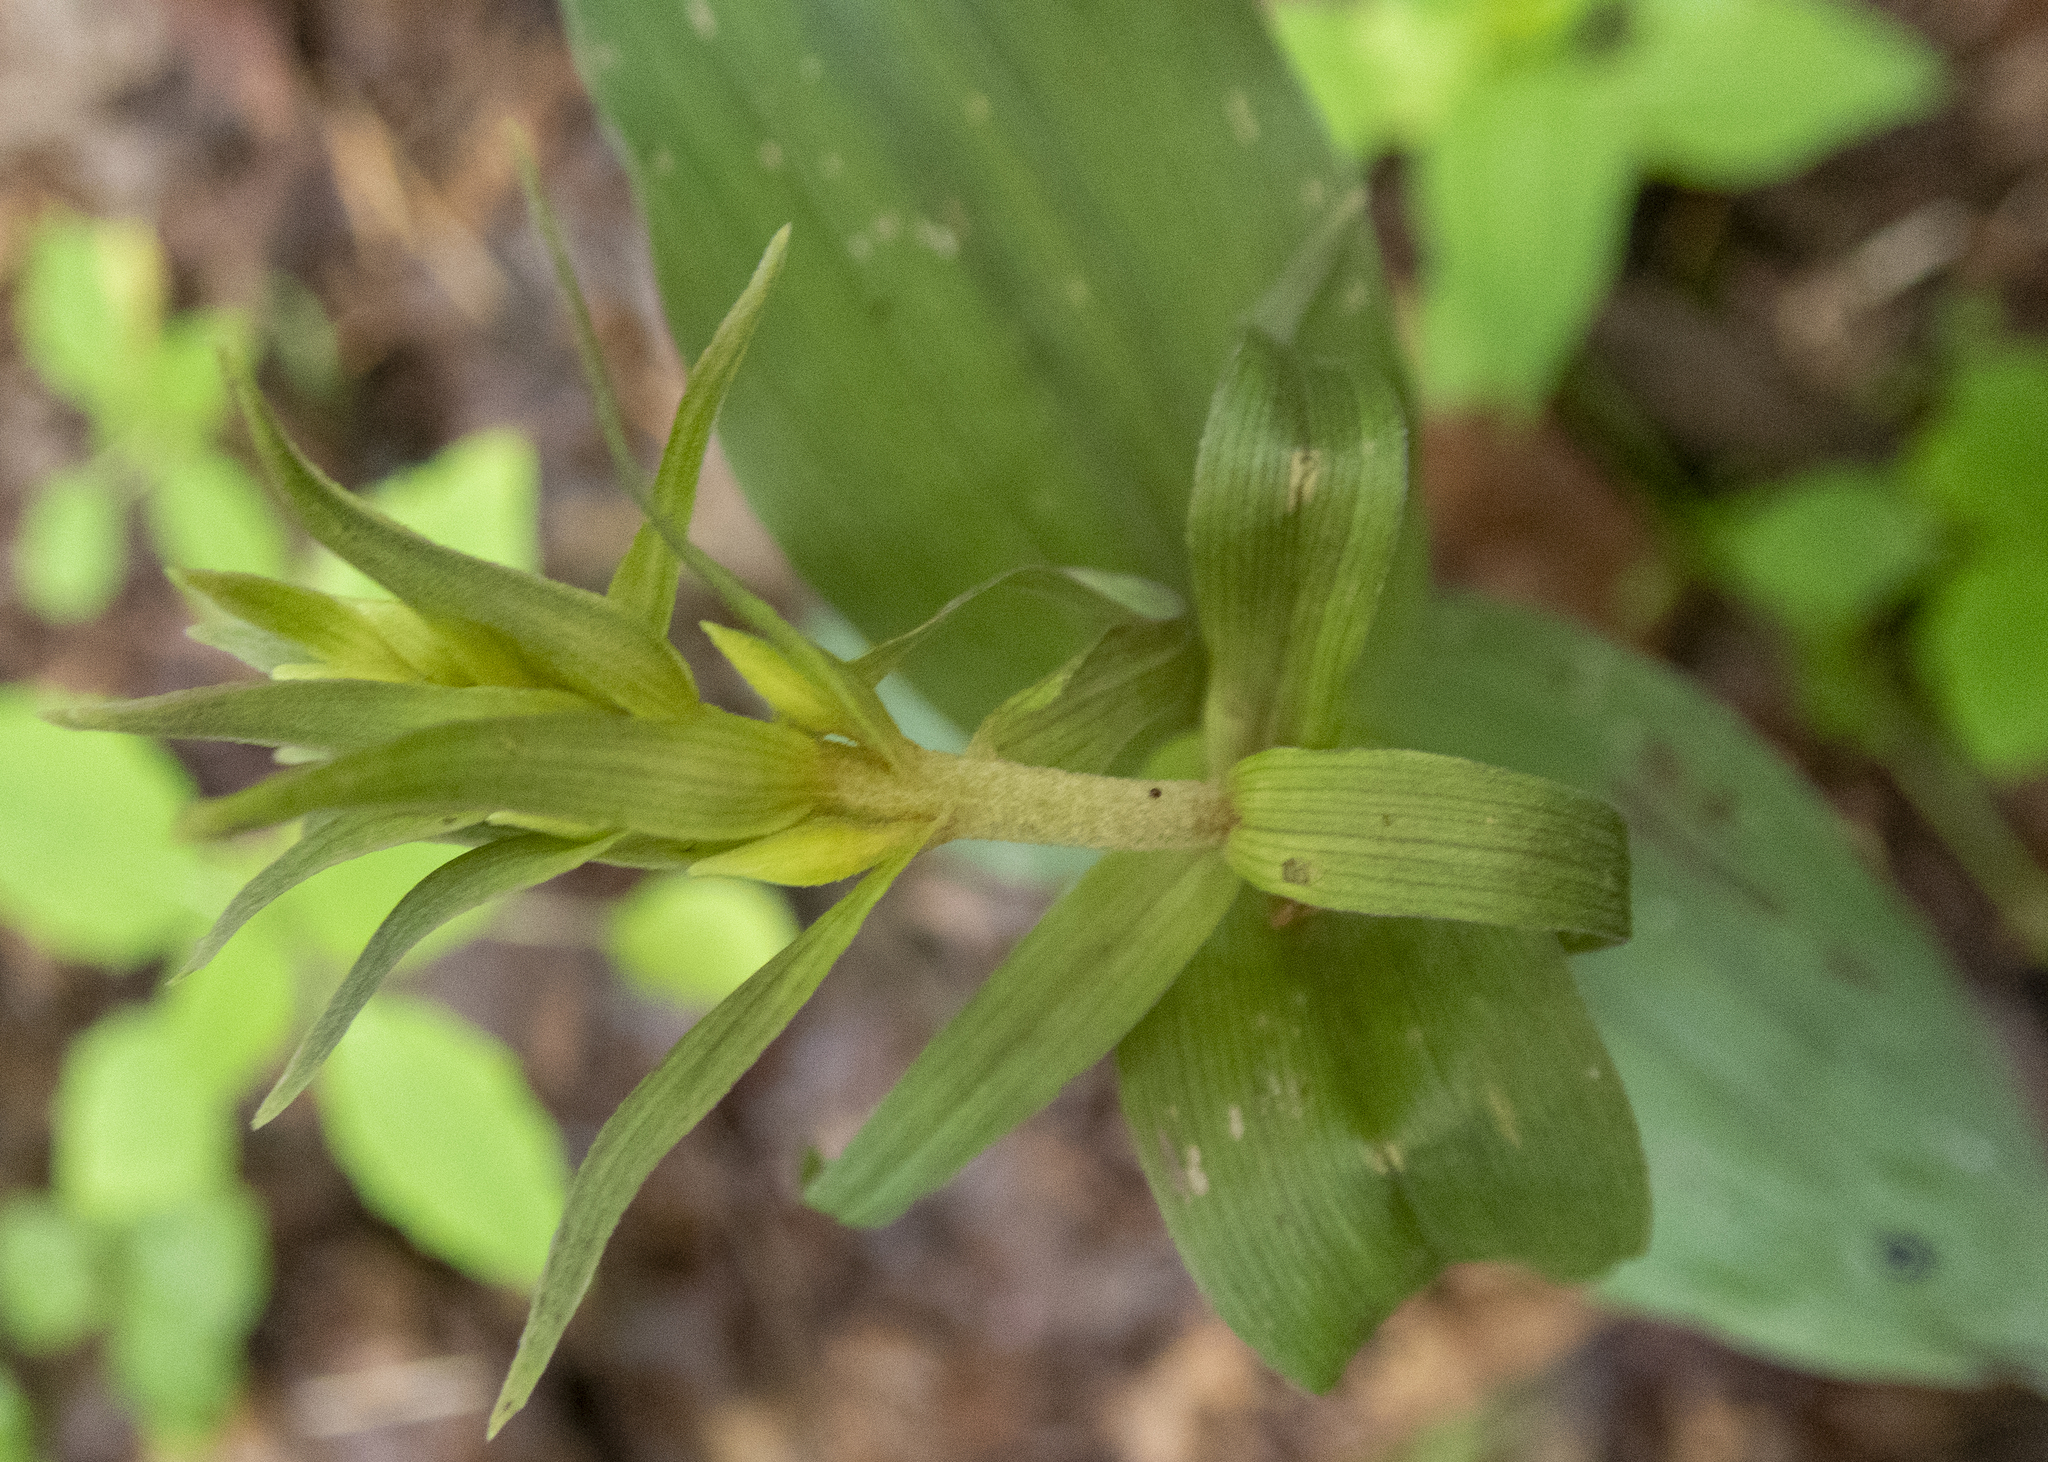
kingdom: Plantae
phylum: Tracheophyta
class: Liliopsida
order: Asparagales
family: Orchidaceae
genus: Epipactis
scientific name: Epipactis helleborine
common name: Broad-leaved helleborine
